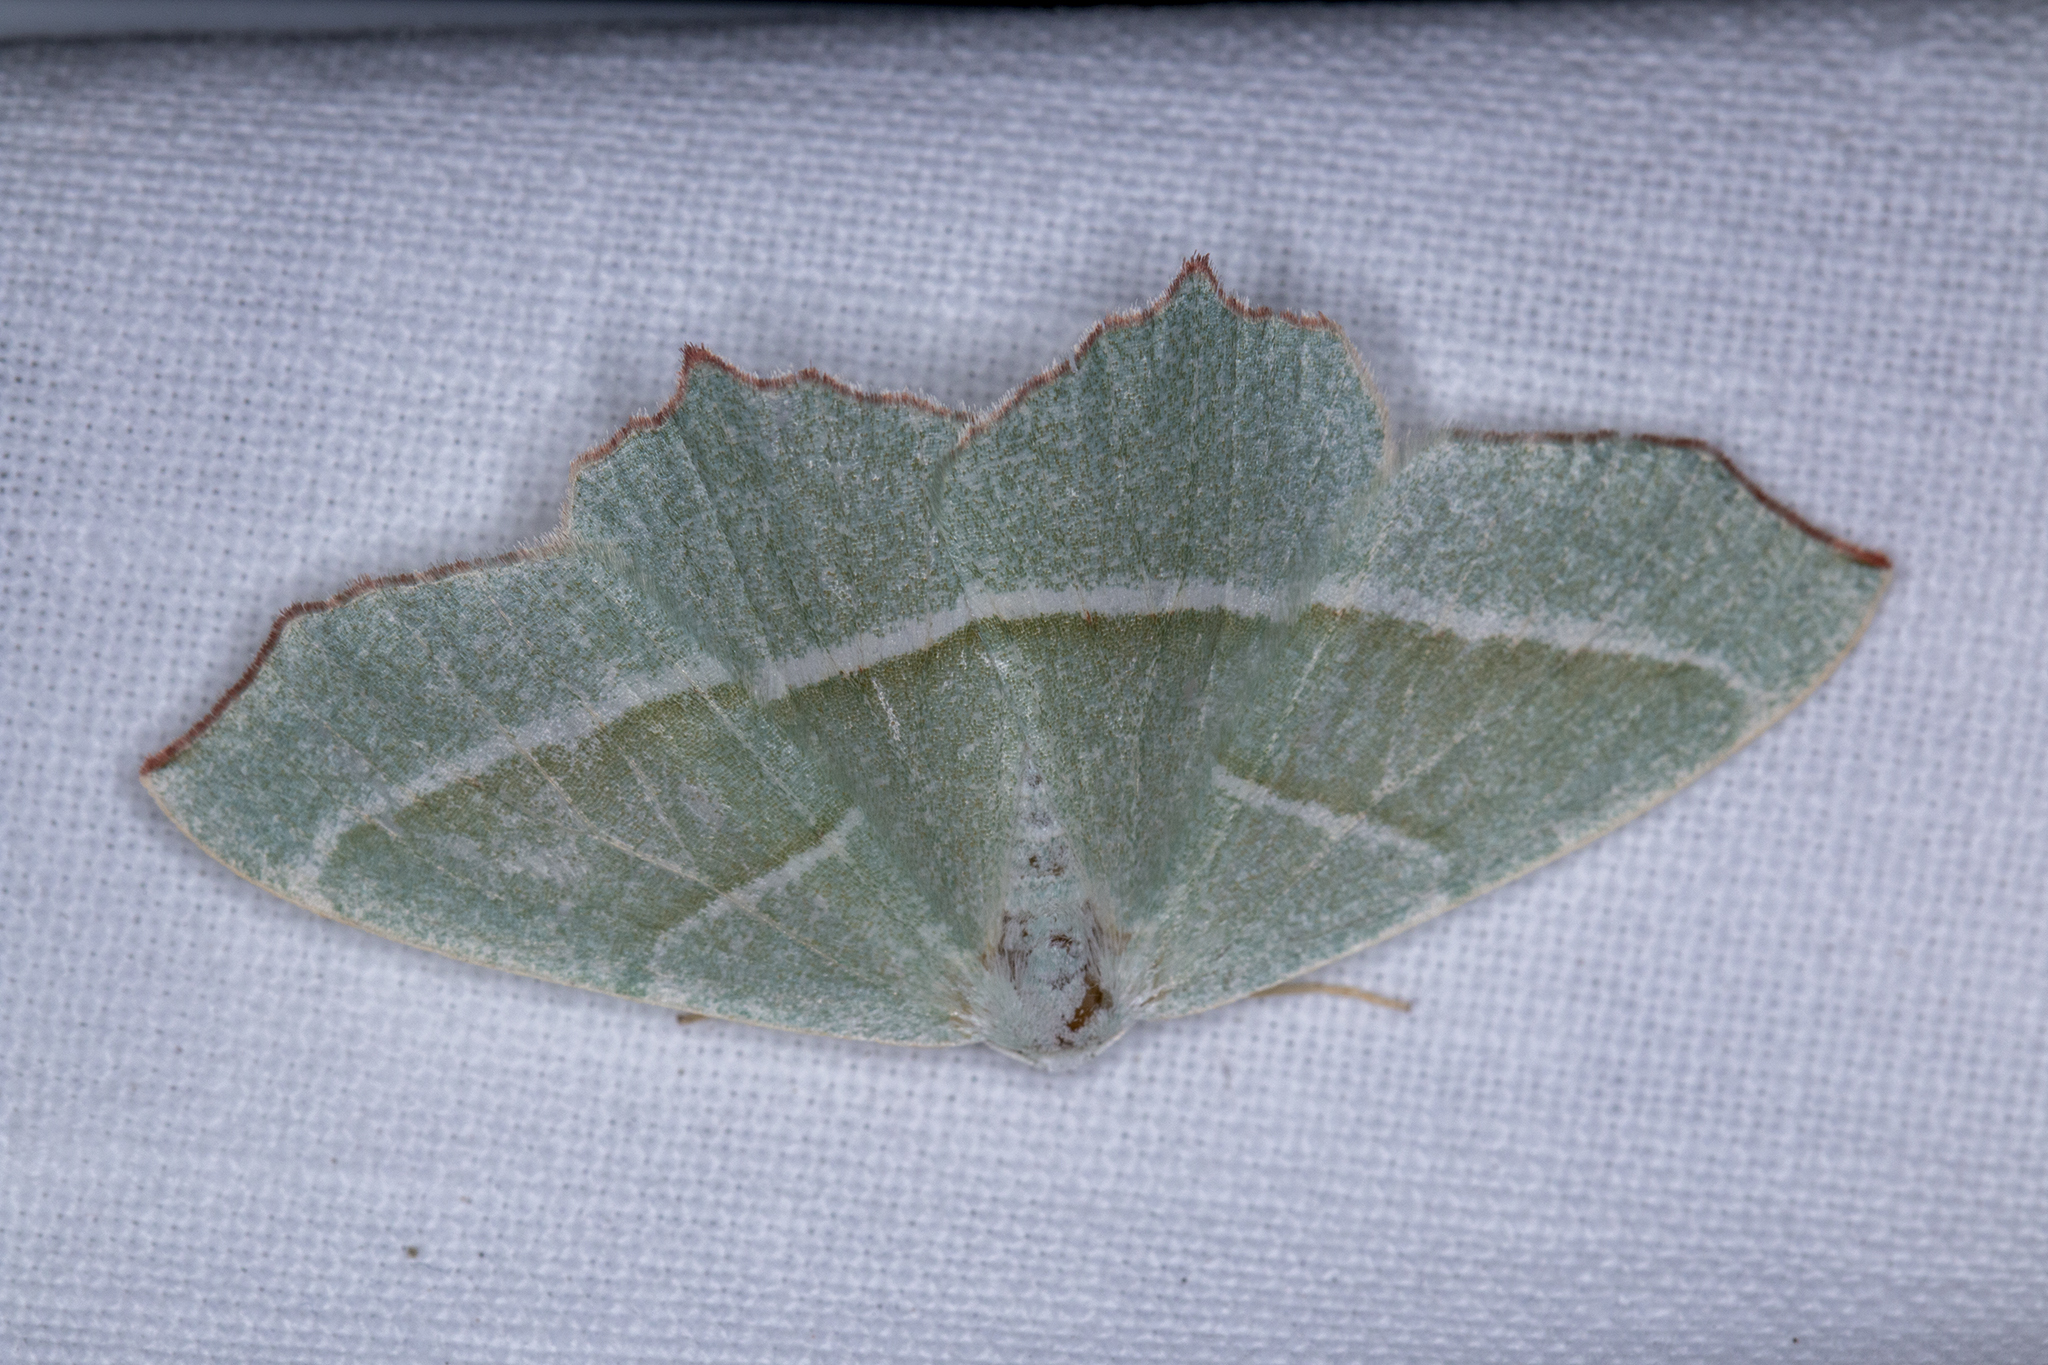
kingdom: Animalia
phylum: Arthropoda
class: Insecta
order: Lepidoptera
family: Geometridae
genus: Campaea
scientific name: Campaea margaritaria
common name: Light emerald
